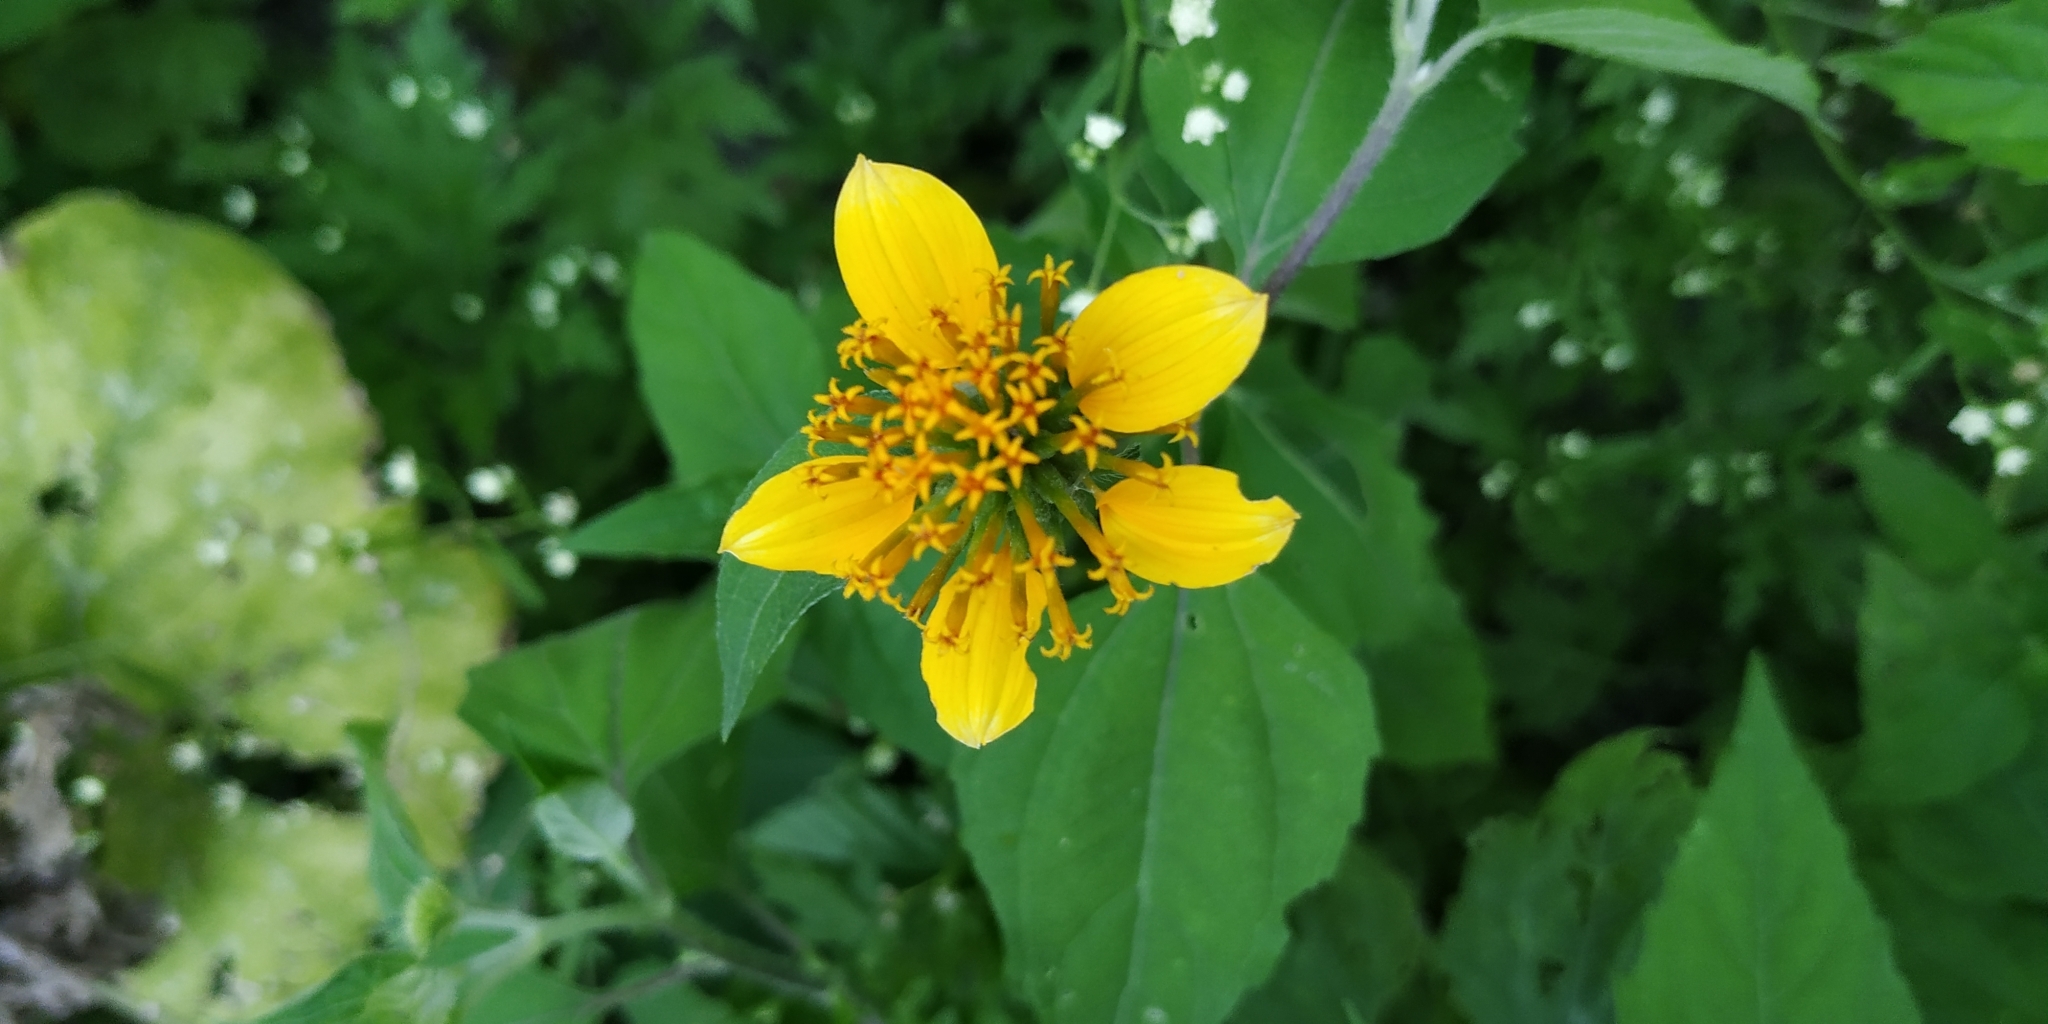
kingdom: Plantae
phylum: Tracheophyta
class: Magnoliopsida
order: Asterales
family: Asteraceae
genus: Sclerocarpus
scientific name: Sclerocarpus uniserialis
